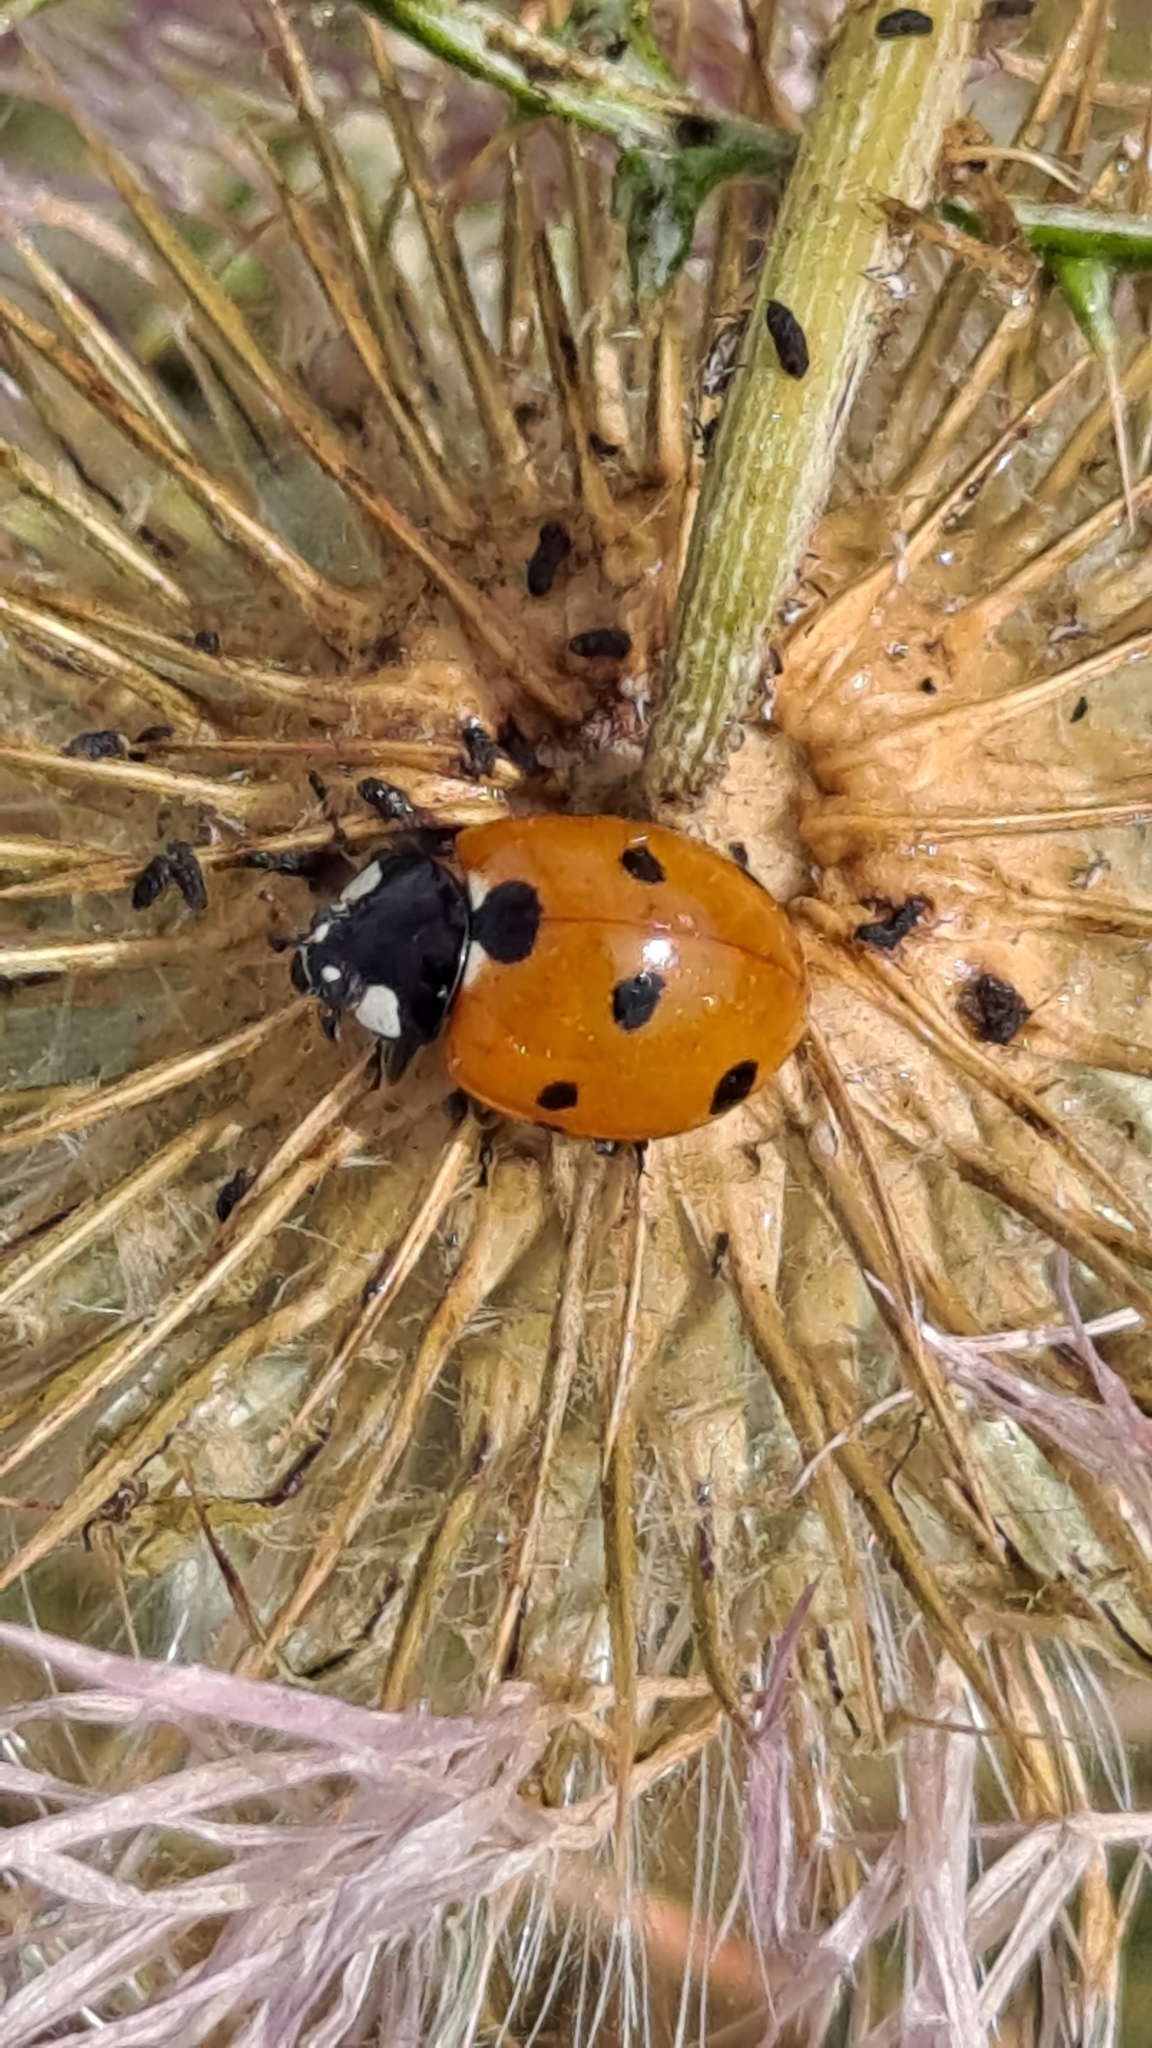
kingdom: Animalia
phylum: Arthropoda
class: Insecta
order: Coleoptera
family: Coccinellidae
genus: Coccinella
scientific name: Coccinella septempunctata
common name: Sevenspotted lady beetle
